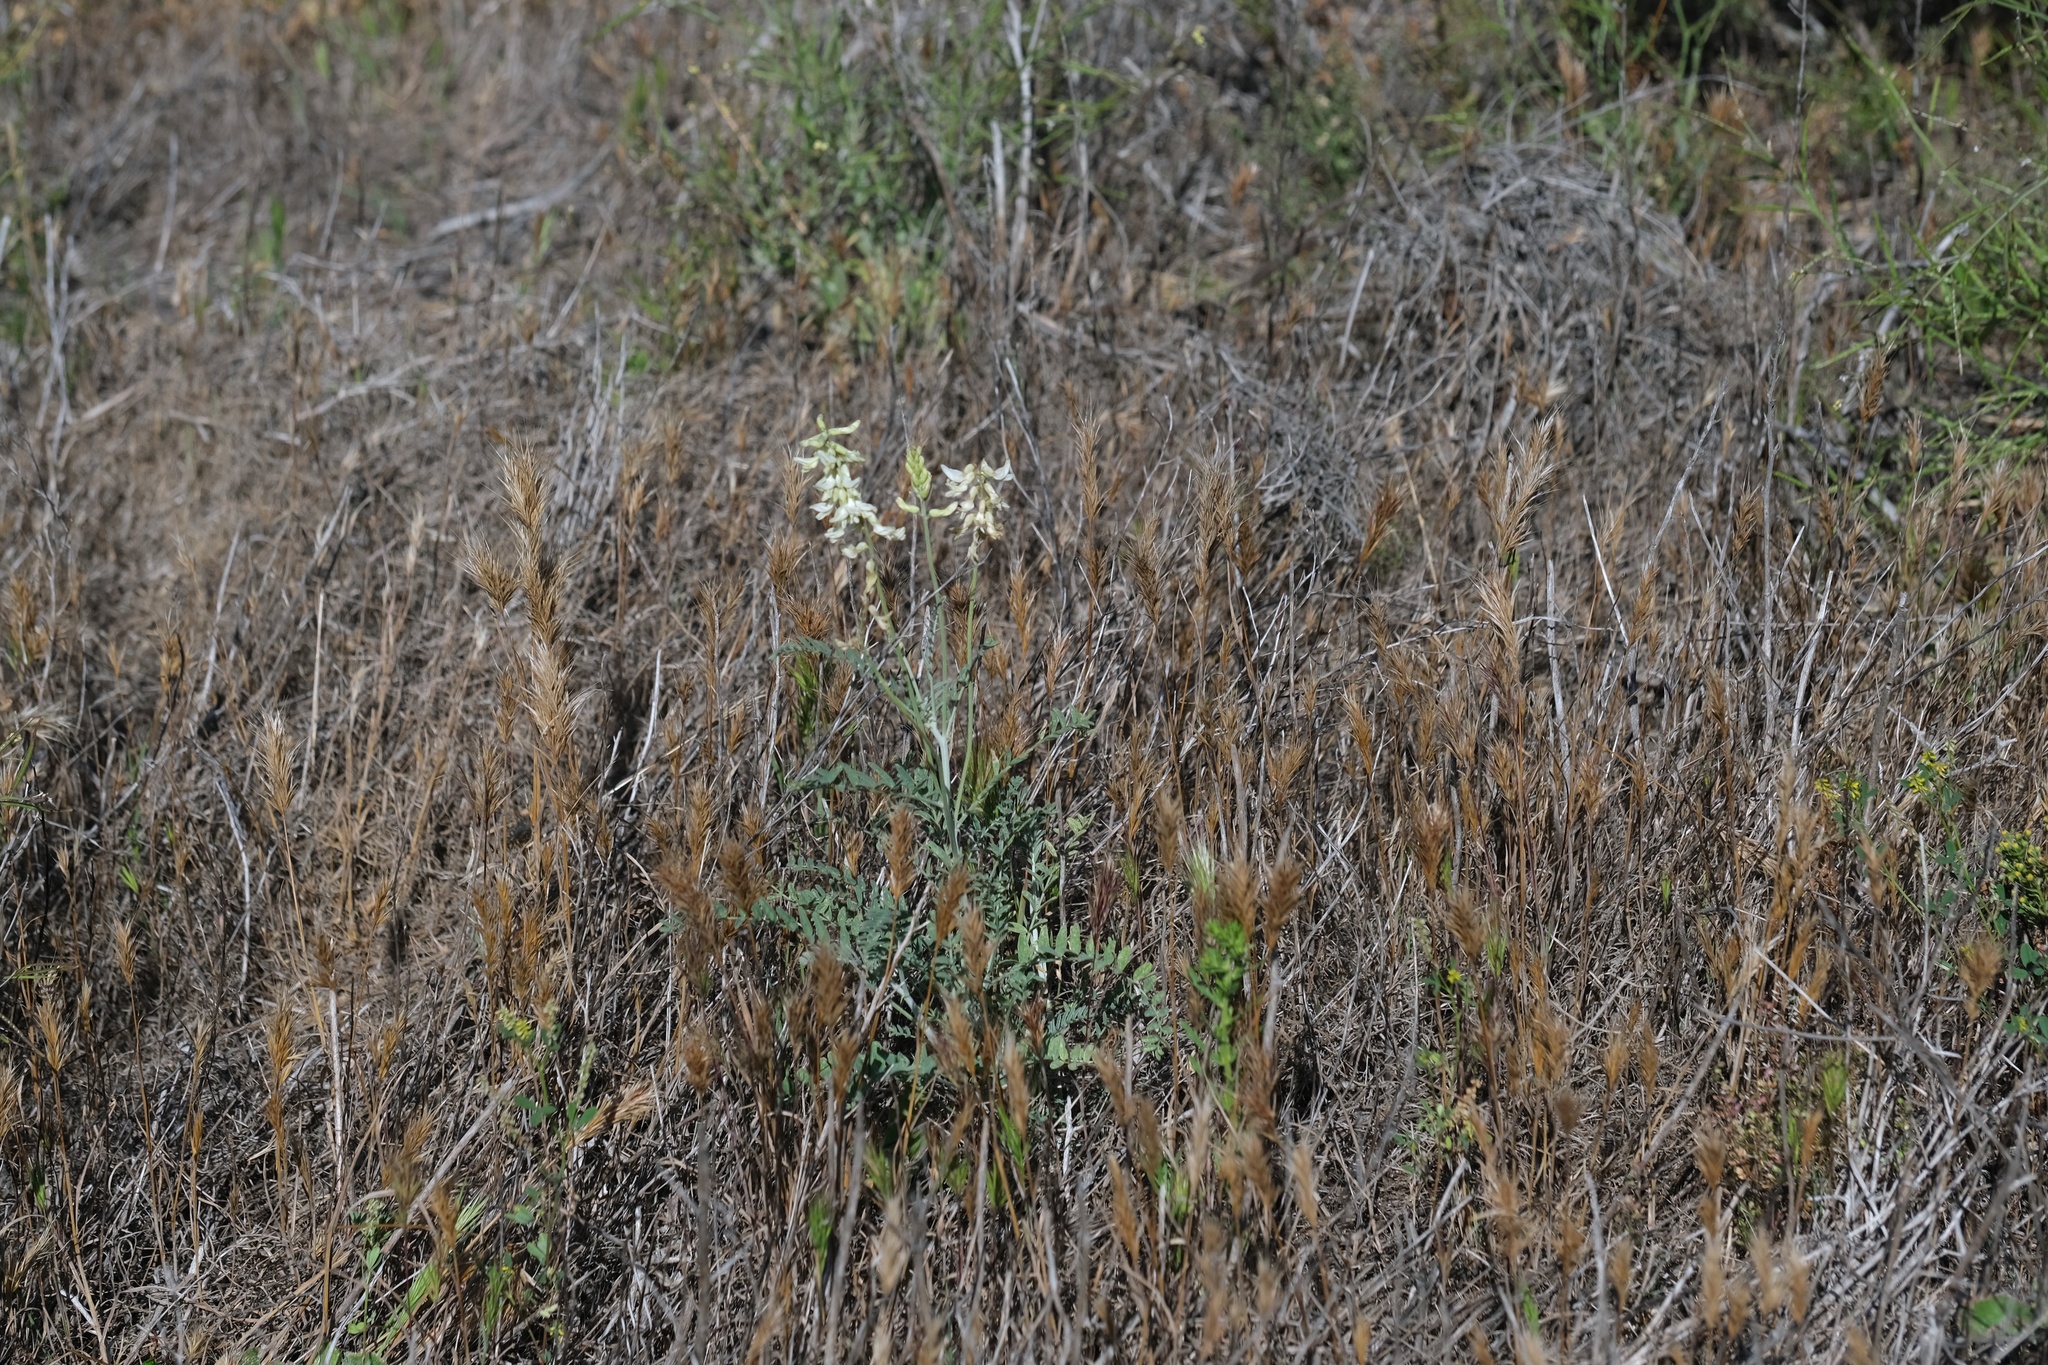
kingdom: Plantae
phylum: Tracheophyta
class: Magnoliopsida
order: Fabales
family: Fabaceae
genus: Astragalus
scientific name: Astragalus trichopodus
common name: Santa barbara milk-vetch
